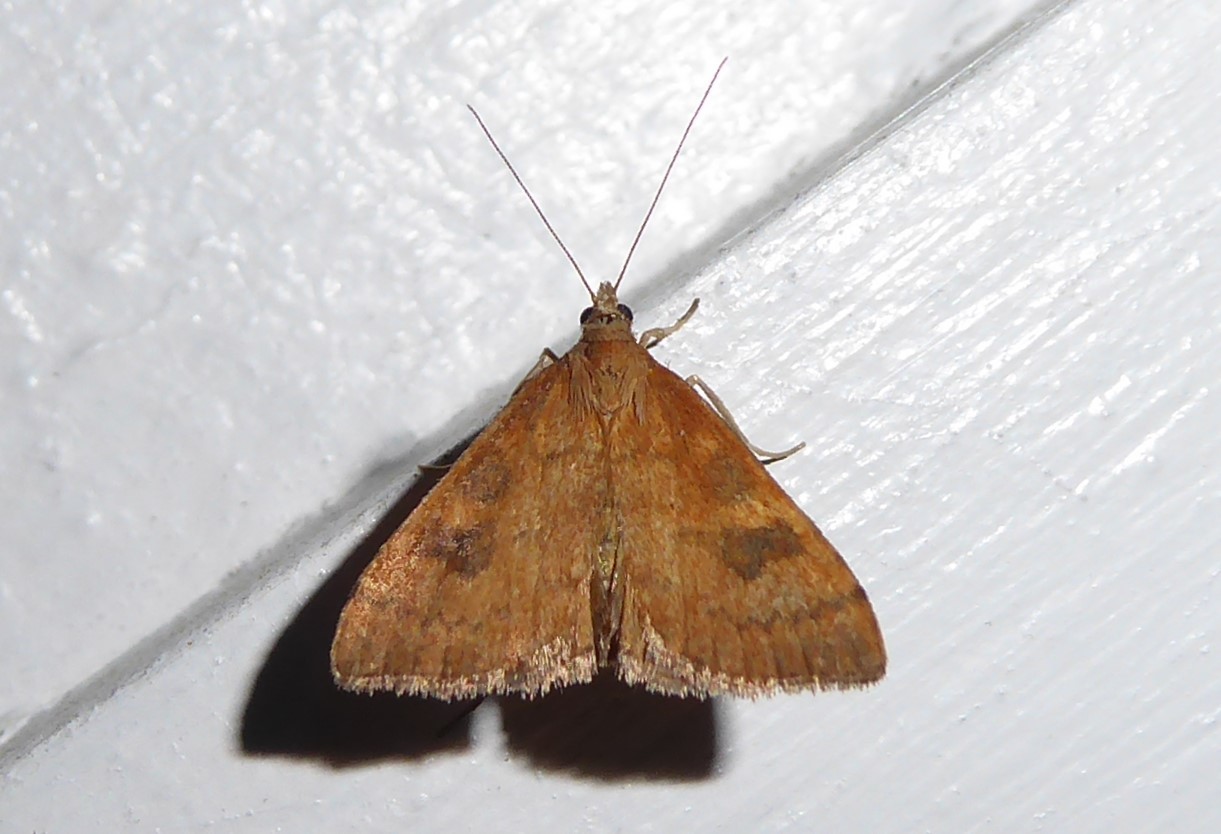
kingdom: Animalia
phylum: Arthropoda
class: Insecta
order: Lepidoptera
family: Crambidae
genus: Udea
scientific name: Udea Mnesictena flavidalis
